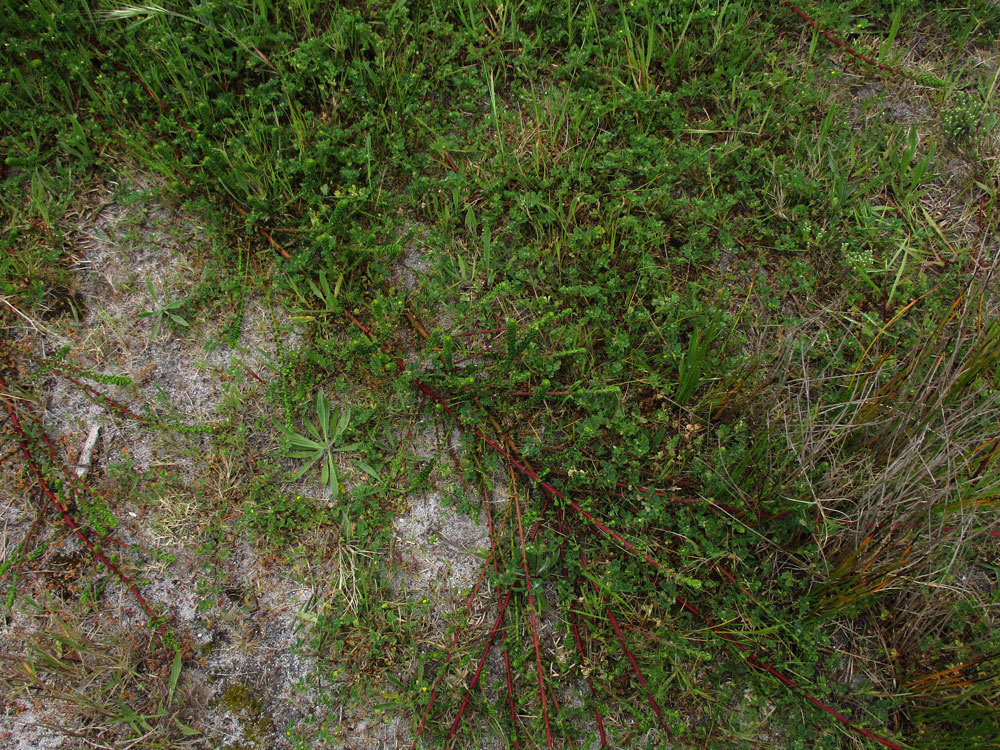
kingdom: Plantae
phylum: Tracheophyta
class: Magnoliopsida
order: Fagales
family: Myricaceae
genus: Morella
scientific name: Morella cordifolia
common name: Waxberry
